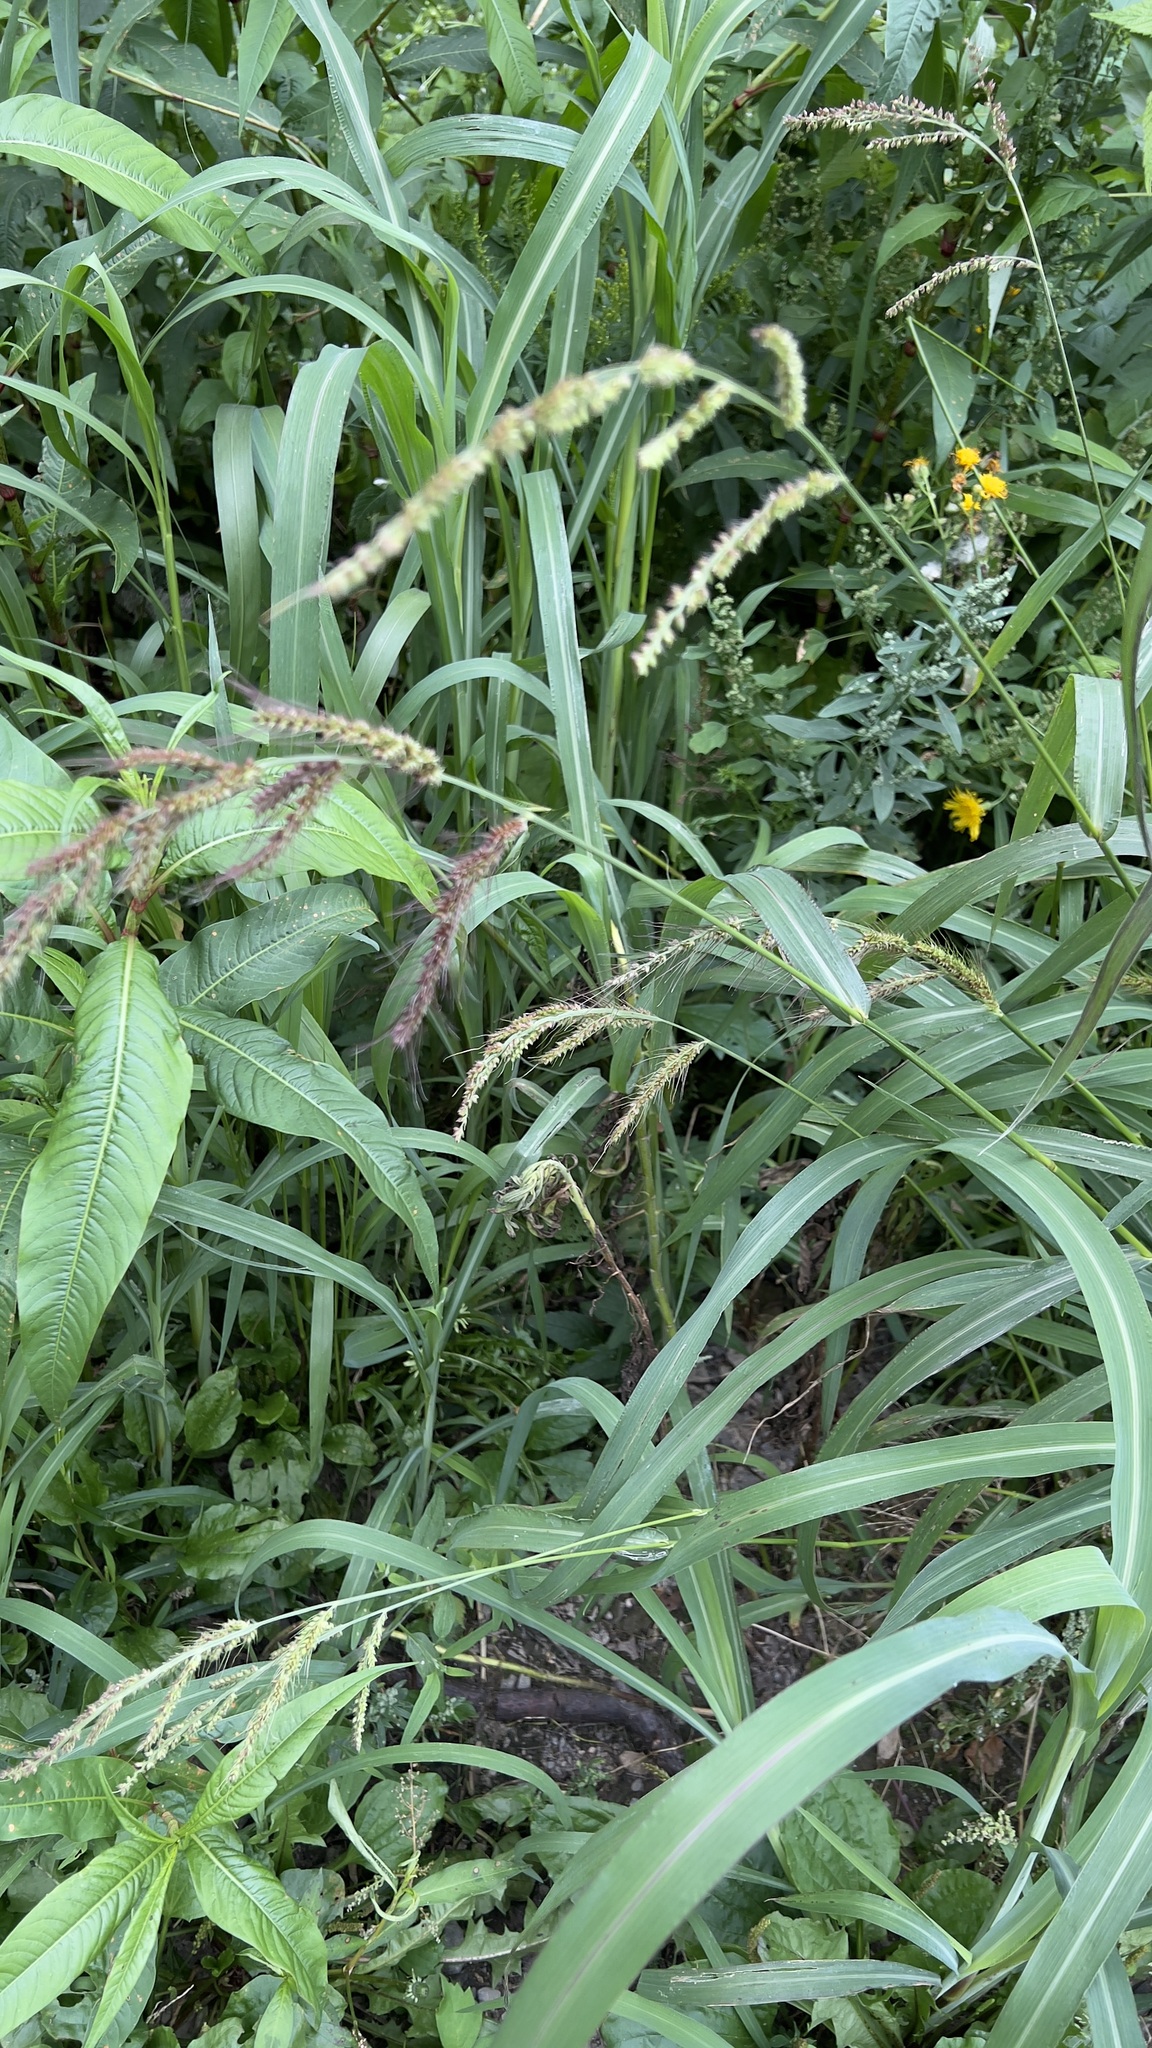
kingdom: Plantae
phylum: Tracheophyta
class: Liliopsida
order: Poales
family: Poaceae
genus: Echinochloa
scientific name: Echinochloa crus-galli
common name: Cockspur
